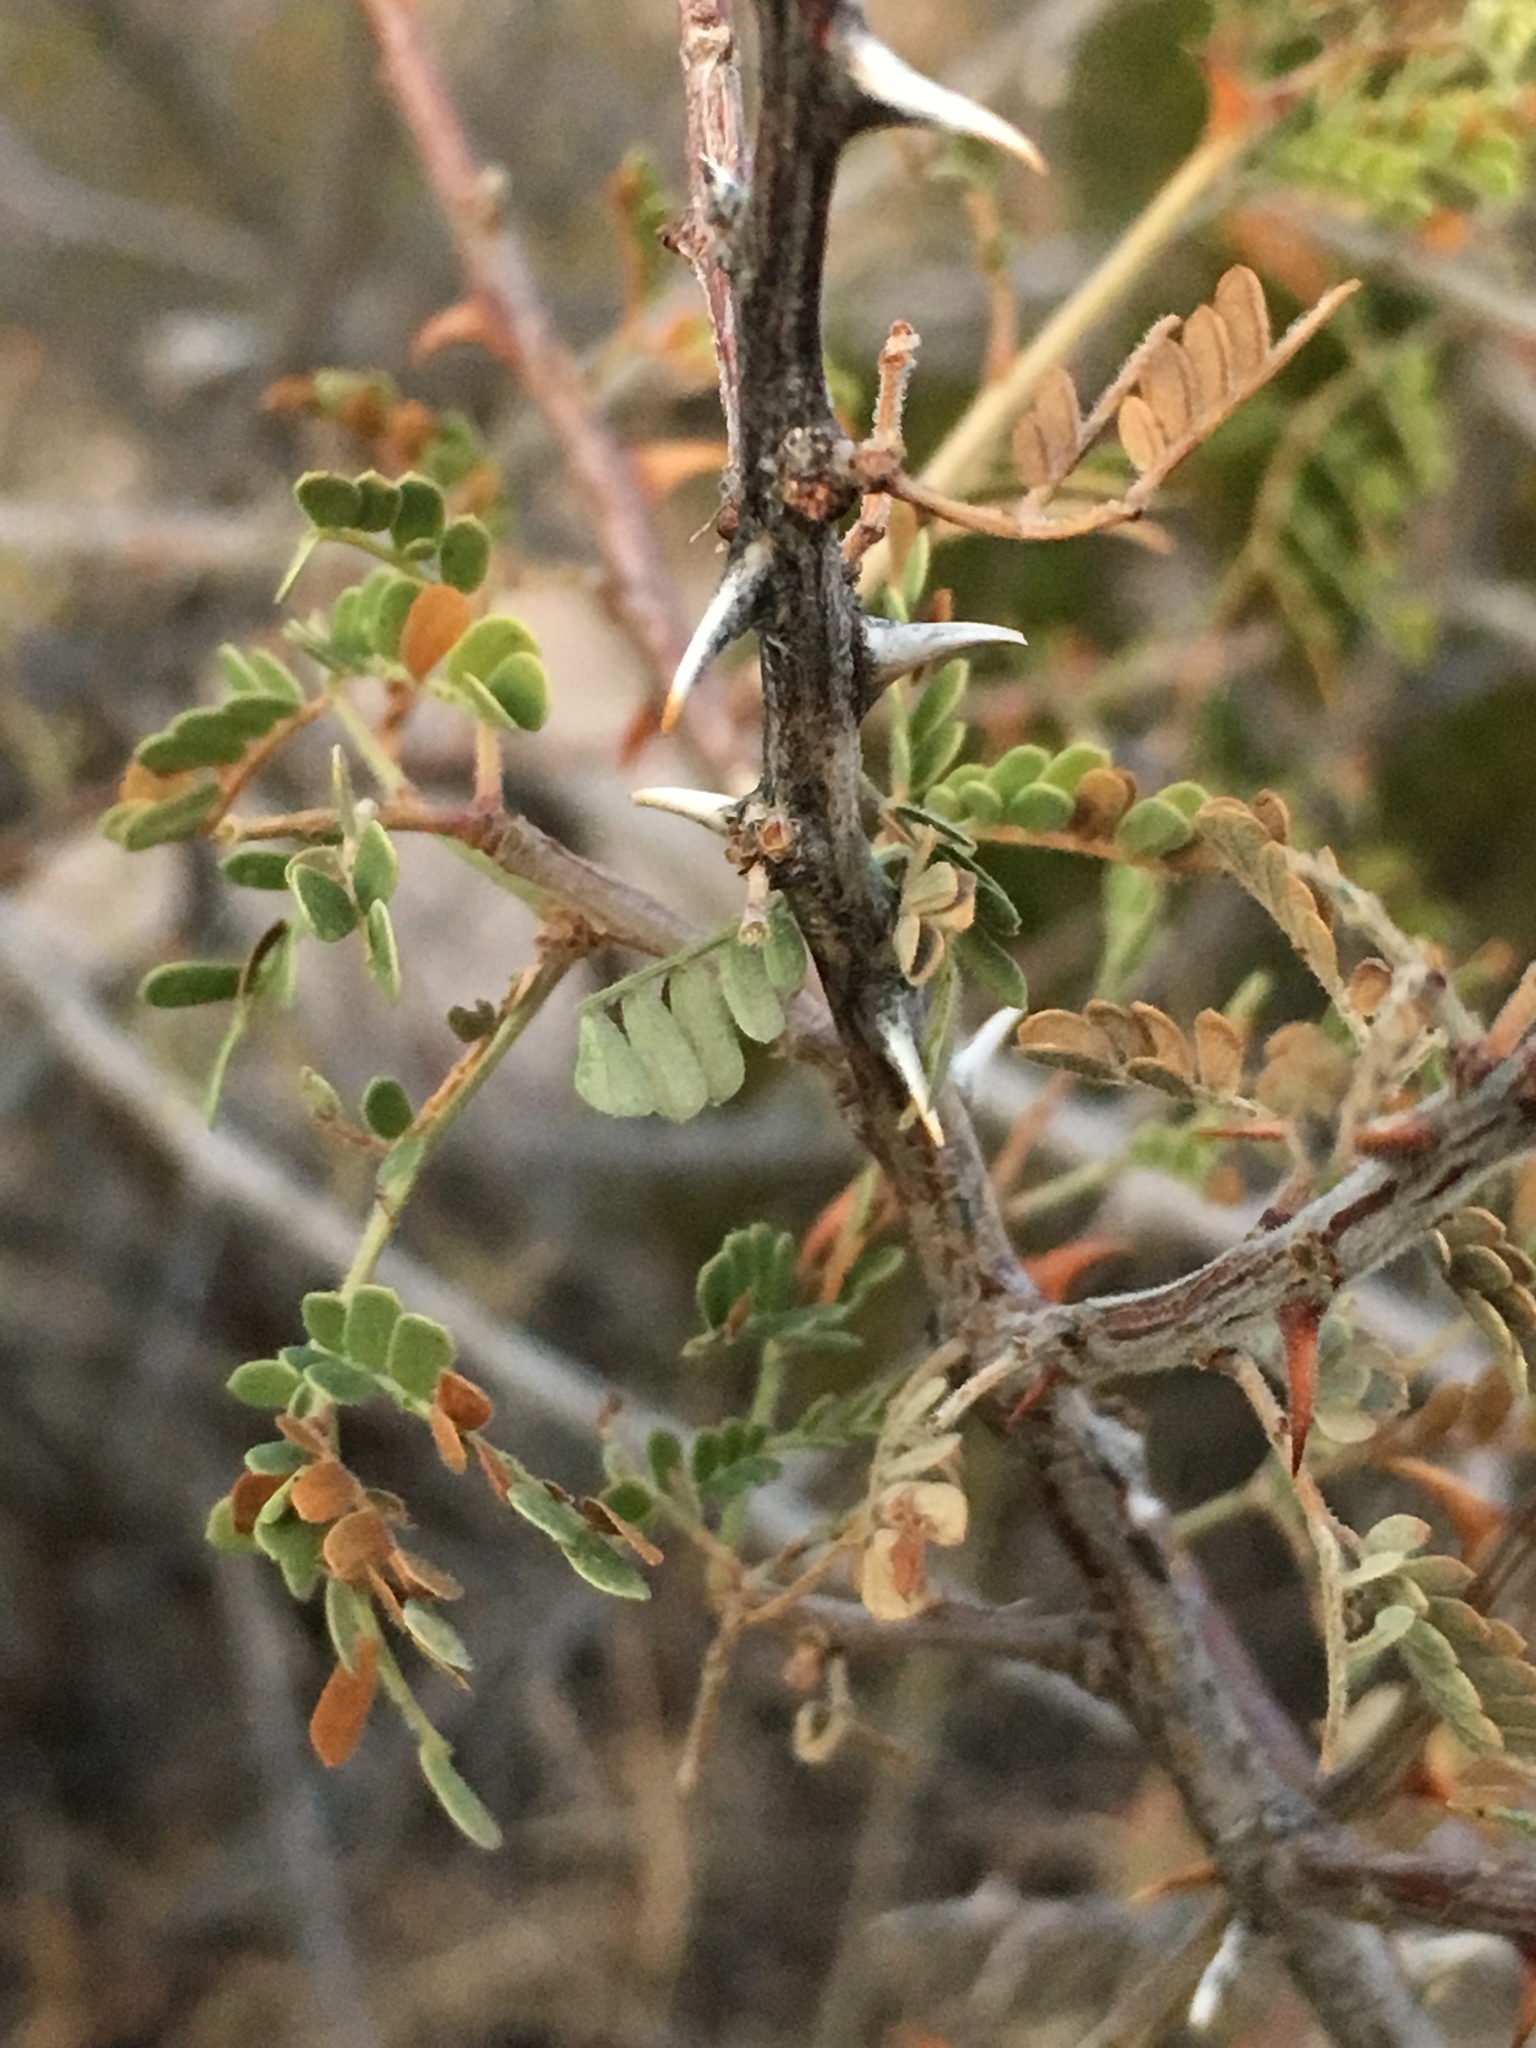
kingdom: Plantae
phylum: Tracheophyta
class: Magnoliopsida
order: Fabales
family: Fabaceae
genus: Senegalia
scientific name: Senegalia greggii
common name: Texas-mimosa
